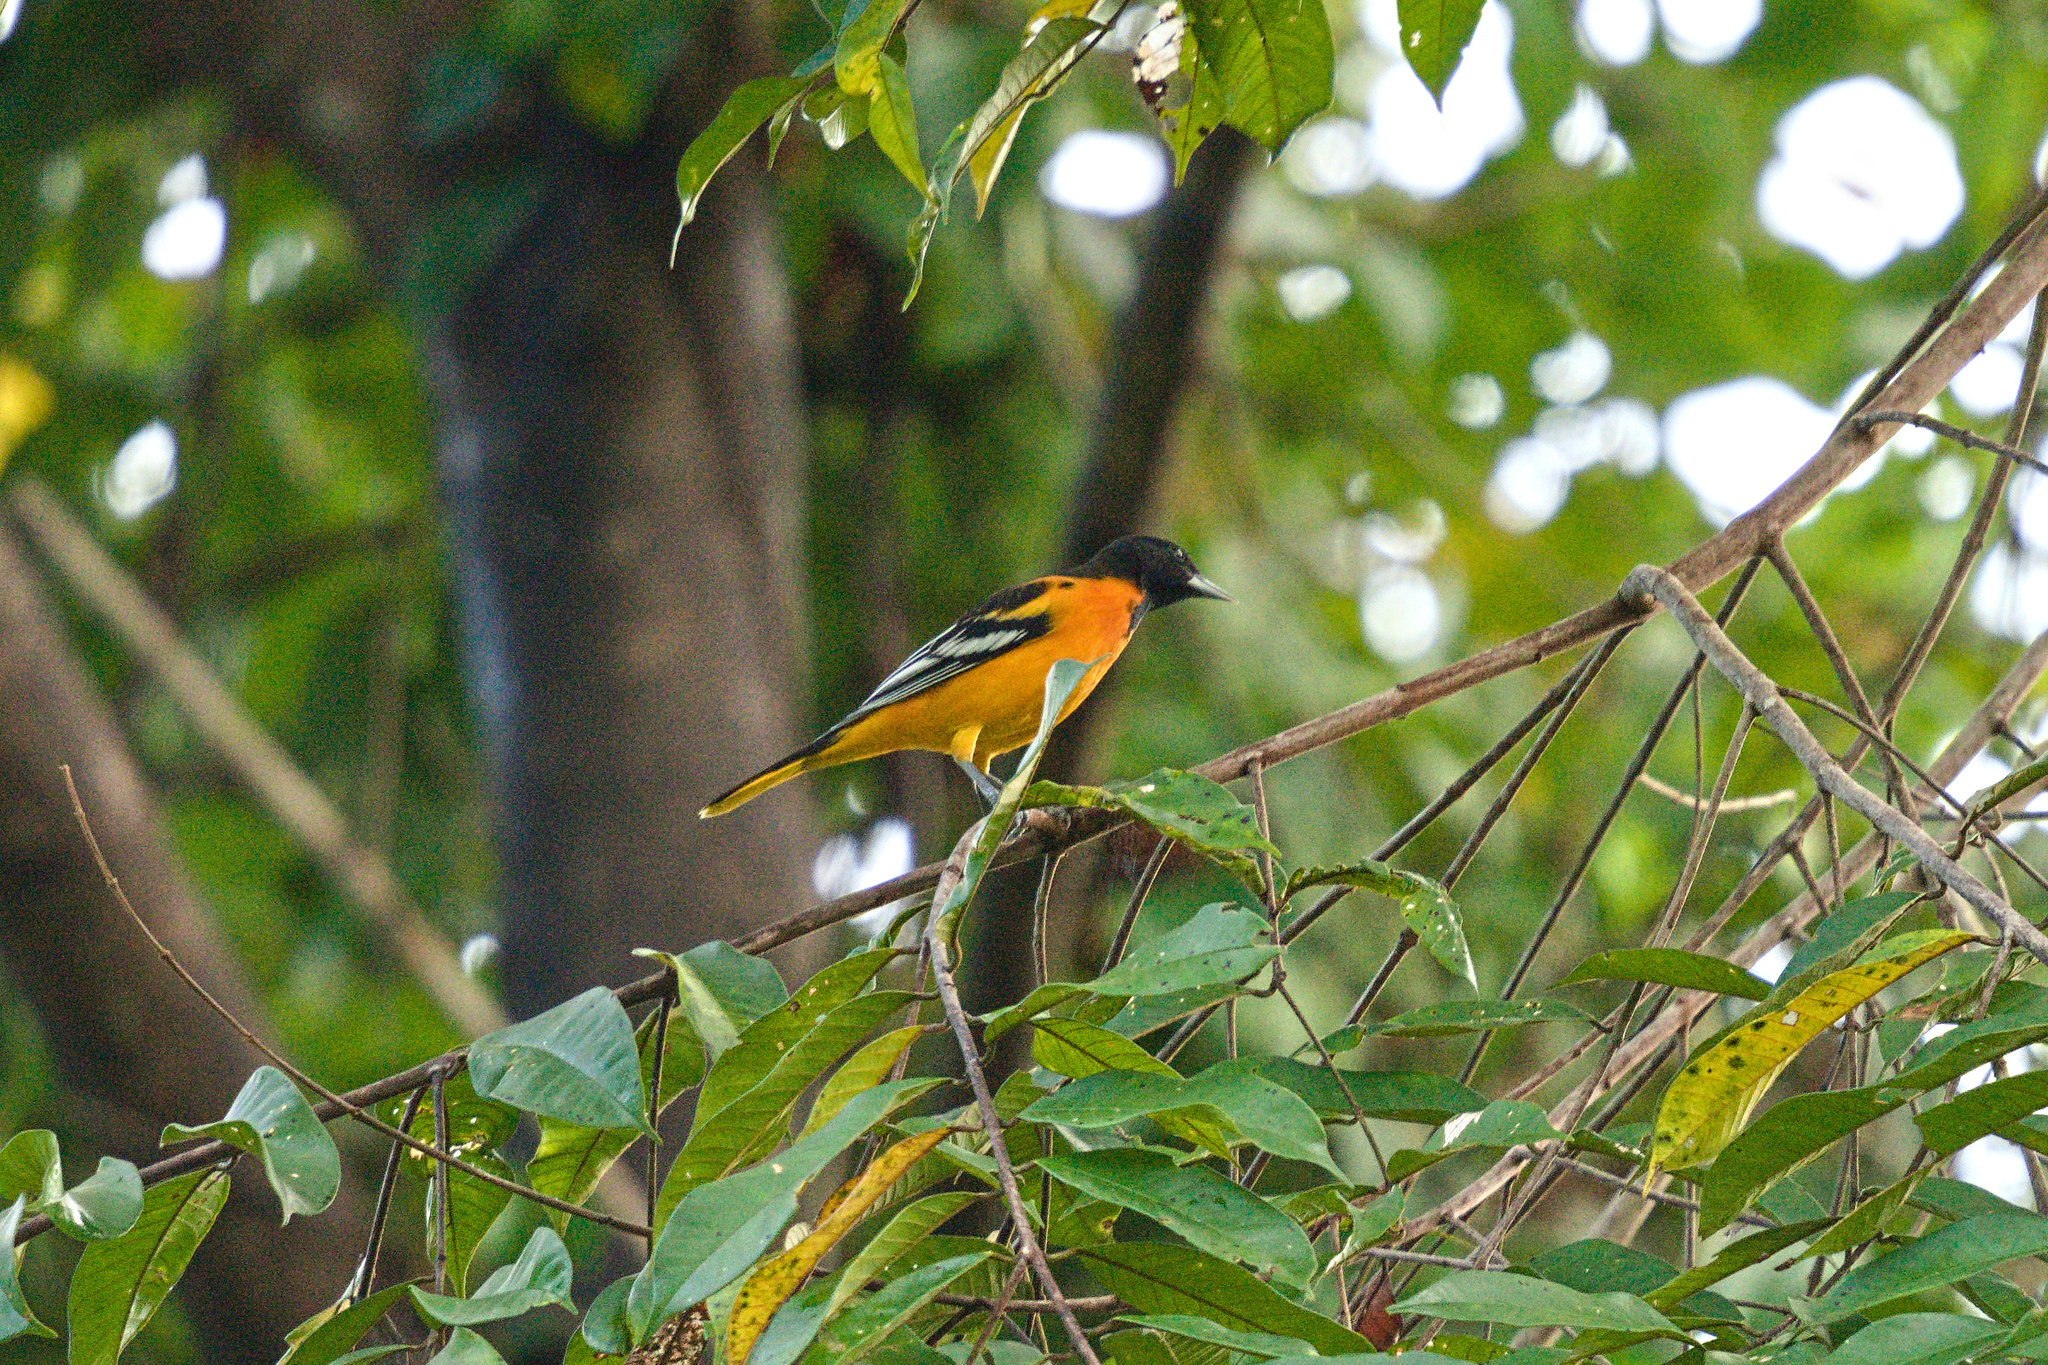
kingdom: Animalia
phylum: Chordata
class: Aves
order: Passeriformes
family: Icteridae
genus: Icterus
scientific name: Icterus galbula
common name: Baltimore oriole
